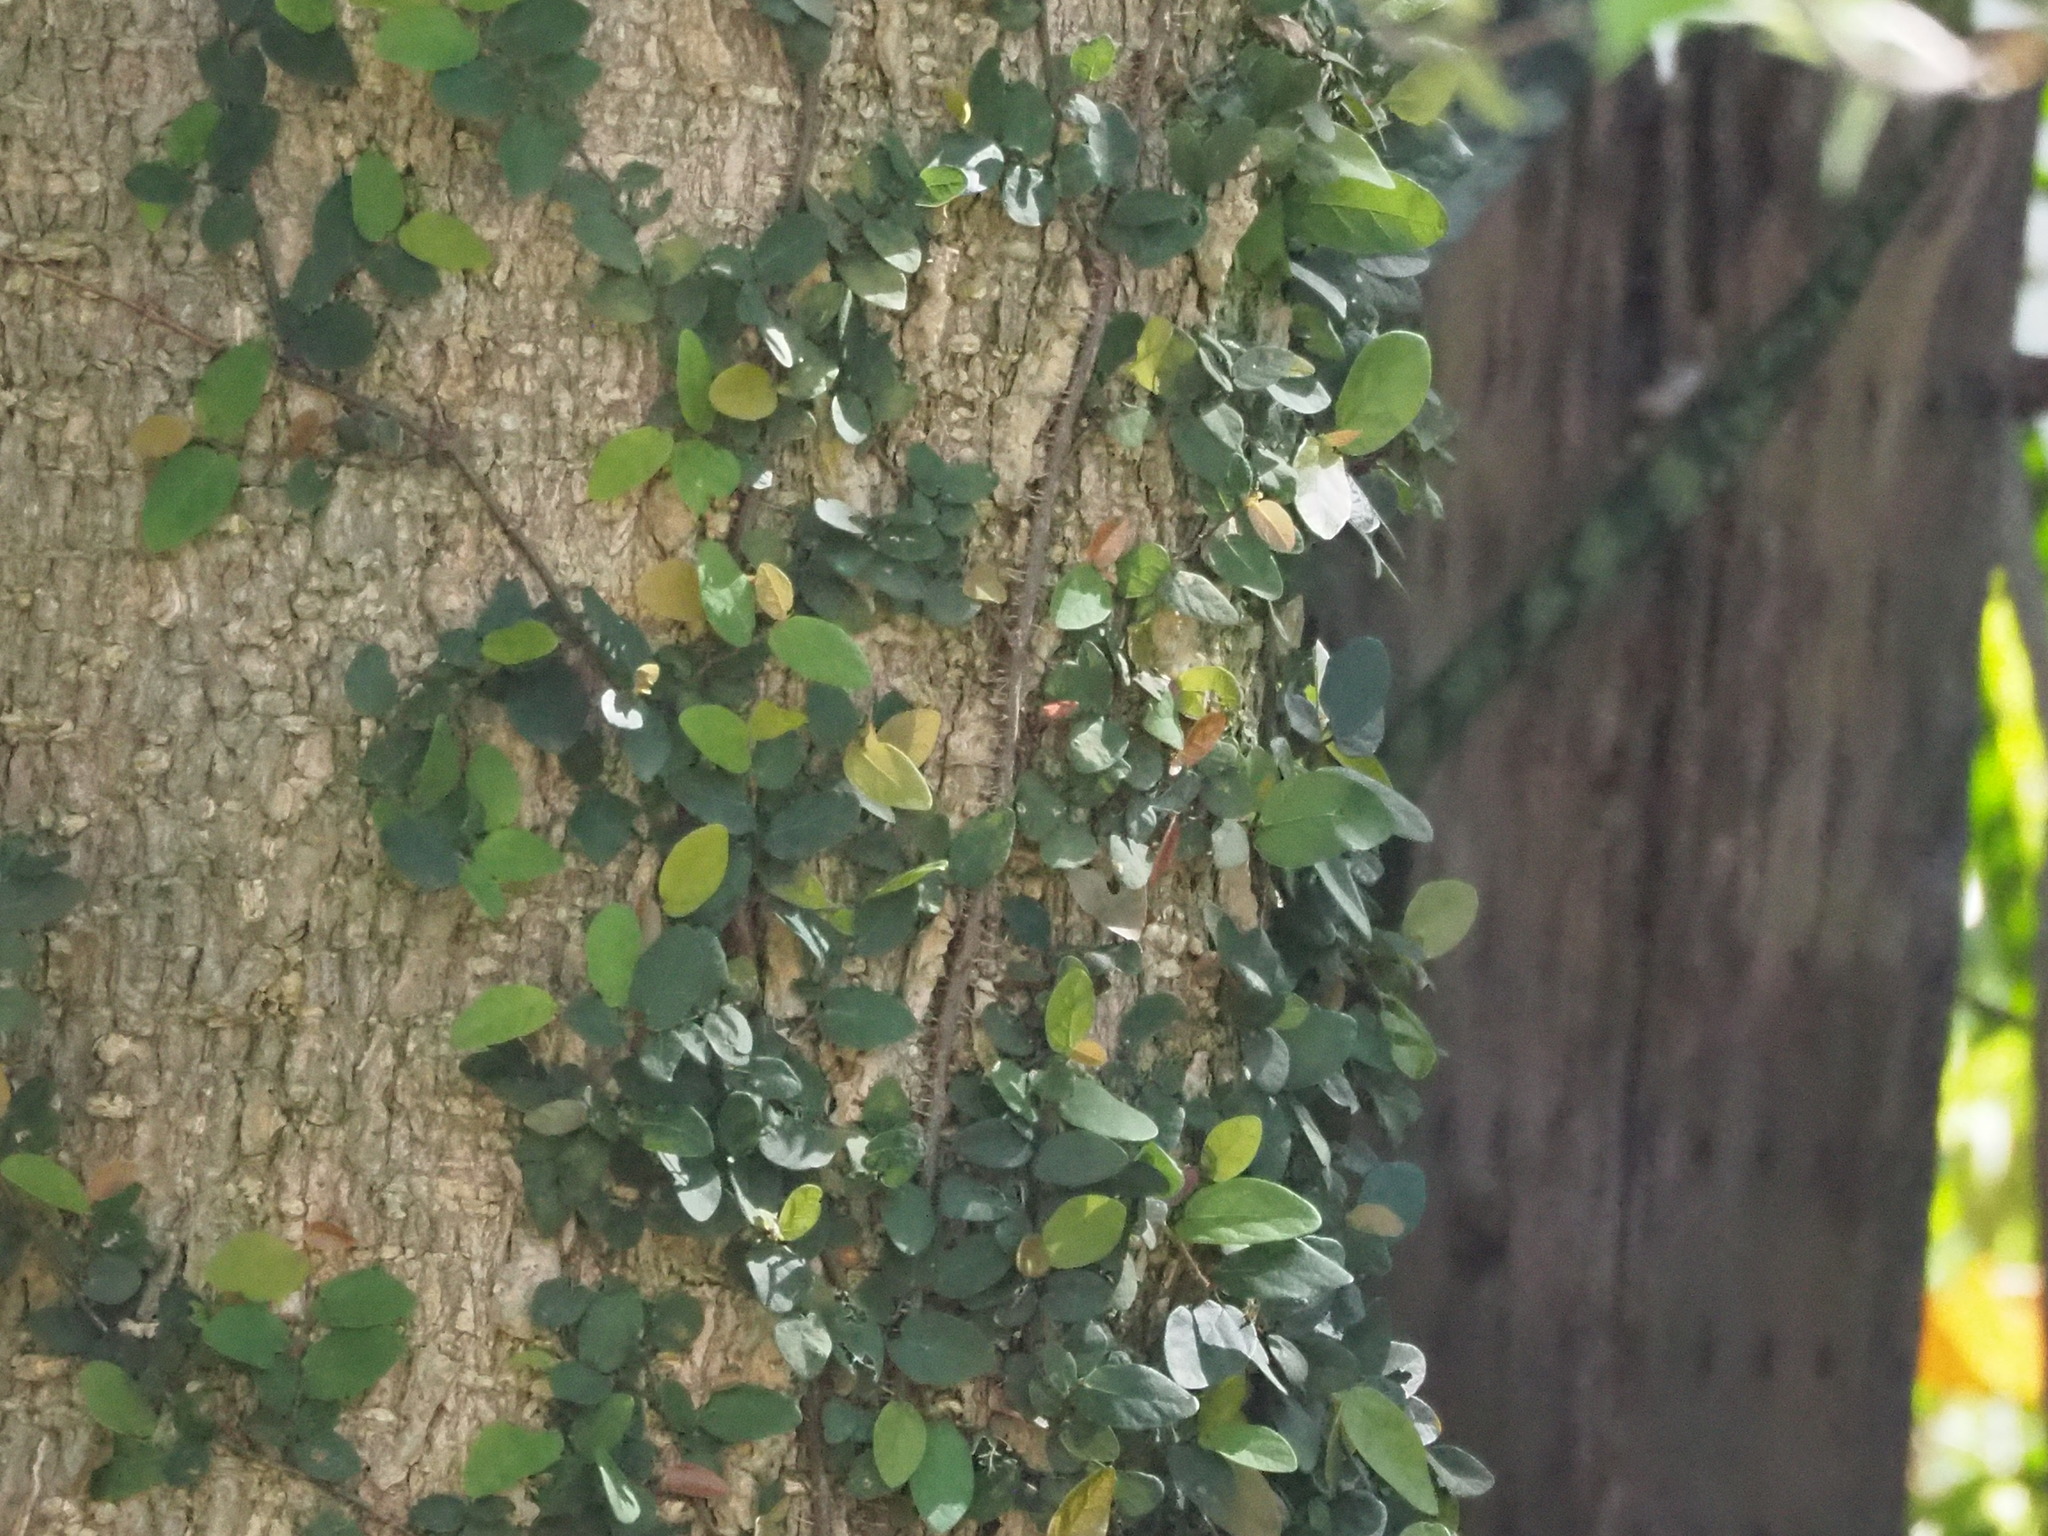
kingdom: Plantae
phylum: Tracheophyta
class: Magnoliopsida
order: Rosales
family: Moraceae
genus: Ficus
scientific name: Ficus pumila
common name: Climbingfig
